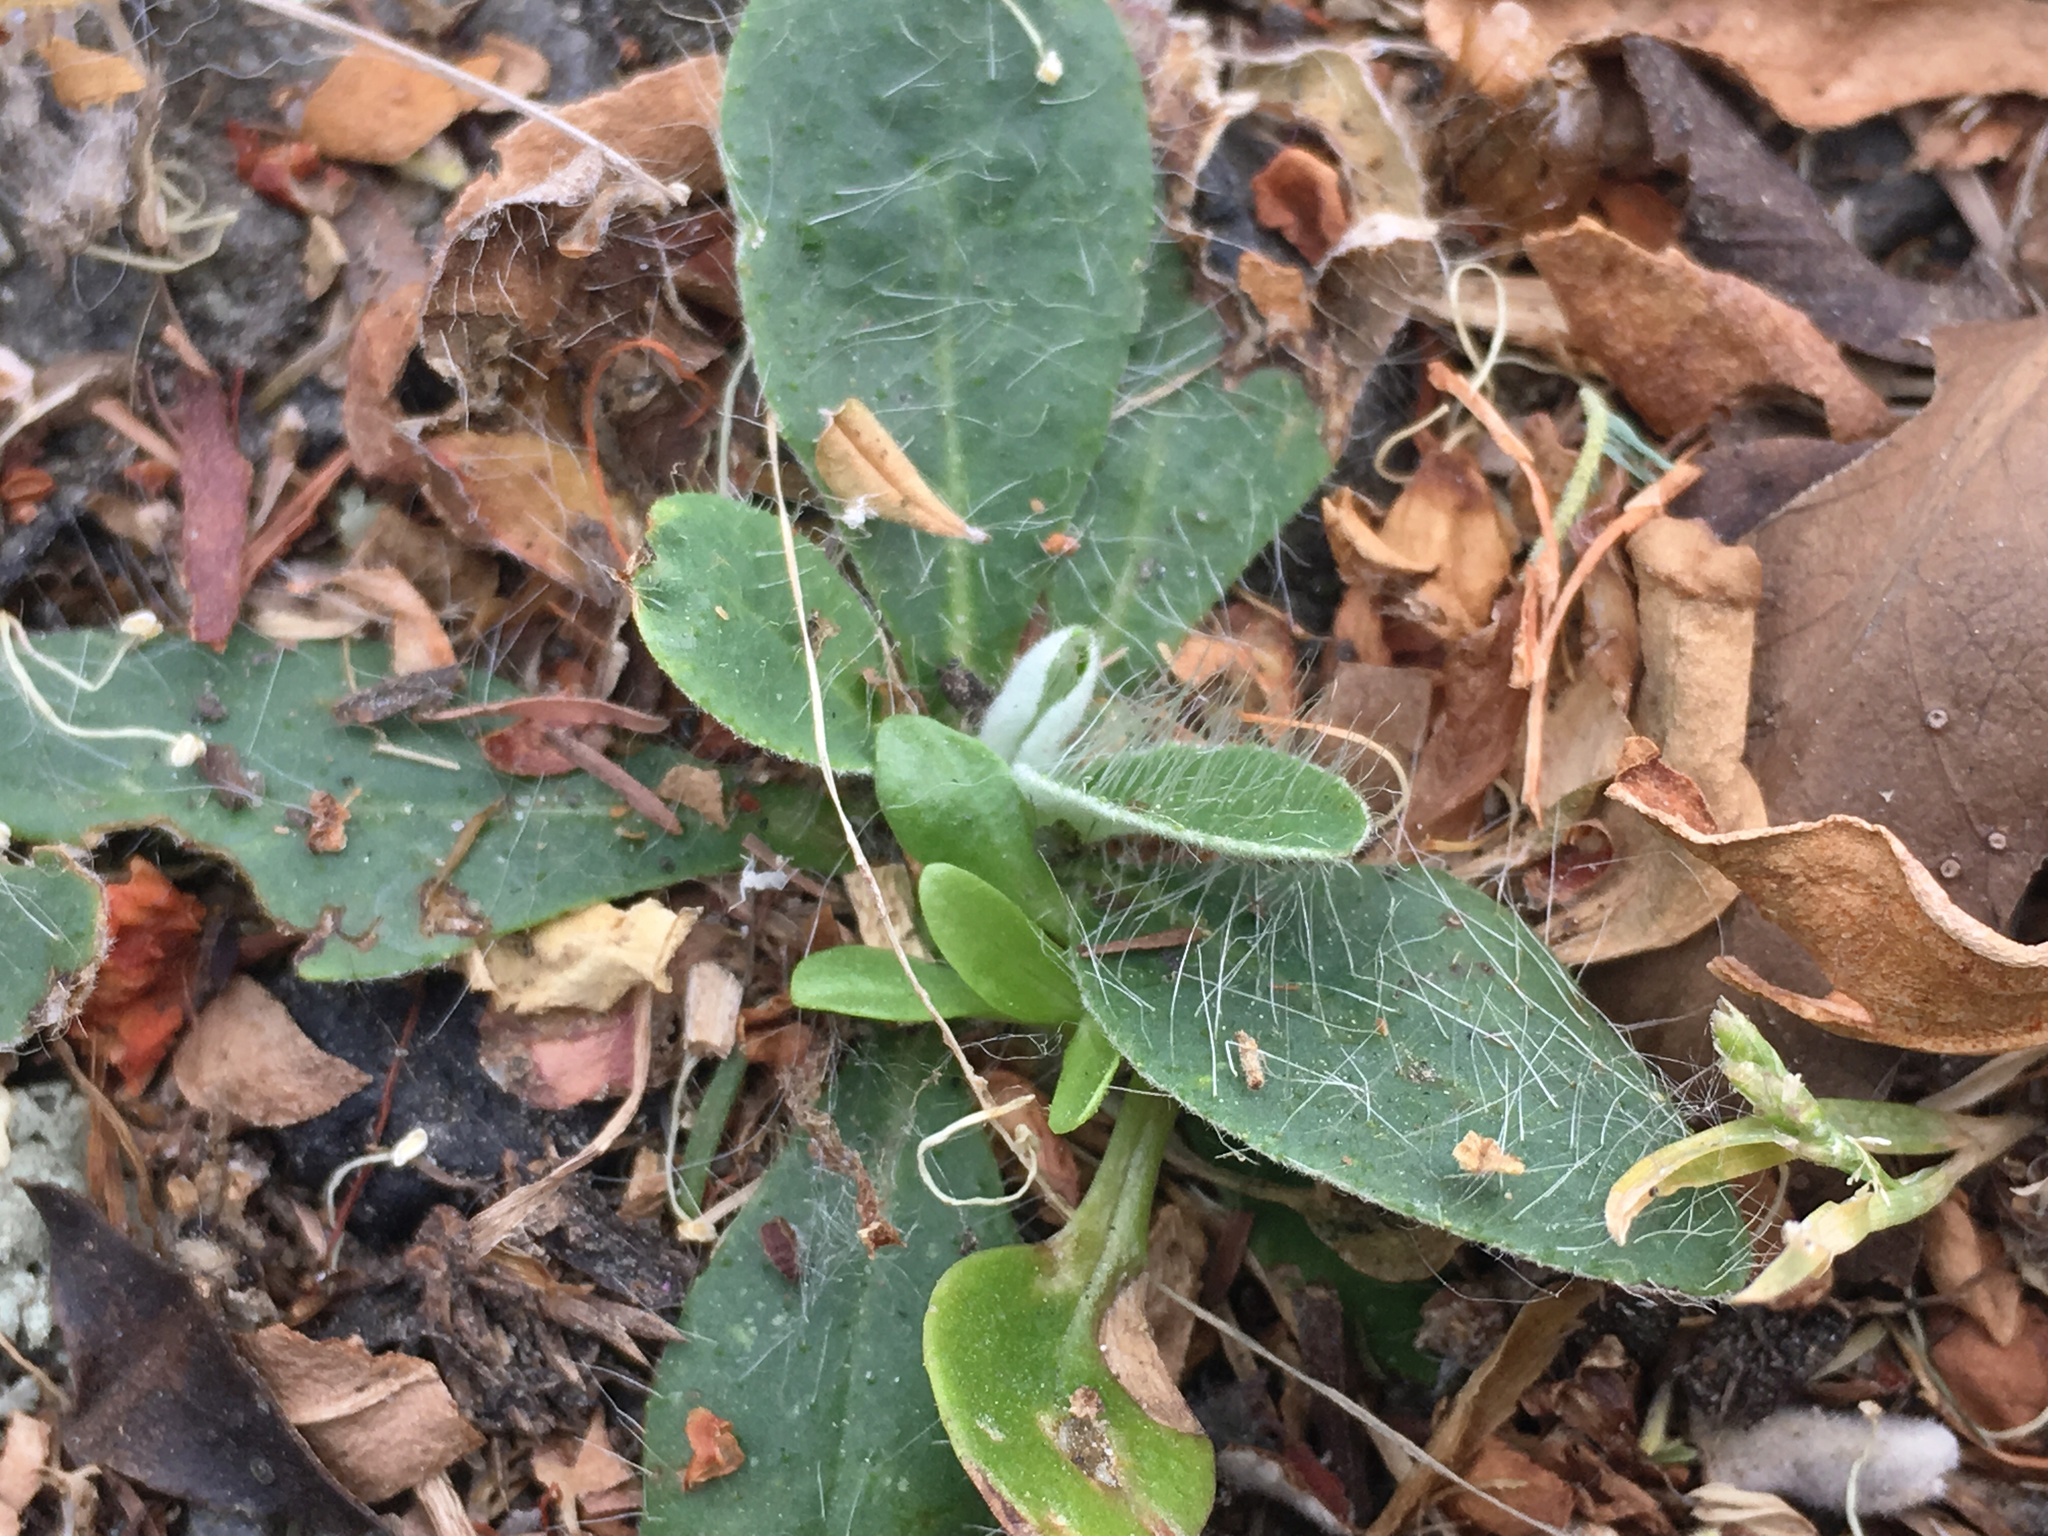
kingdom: Plantae
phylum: Tracheophyta
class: Magnoliopsida
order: Asterales
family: Asteraceae
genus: Pilosella
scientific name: Pilosella officinarum
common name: Mouse-ear hawkweed
